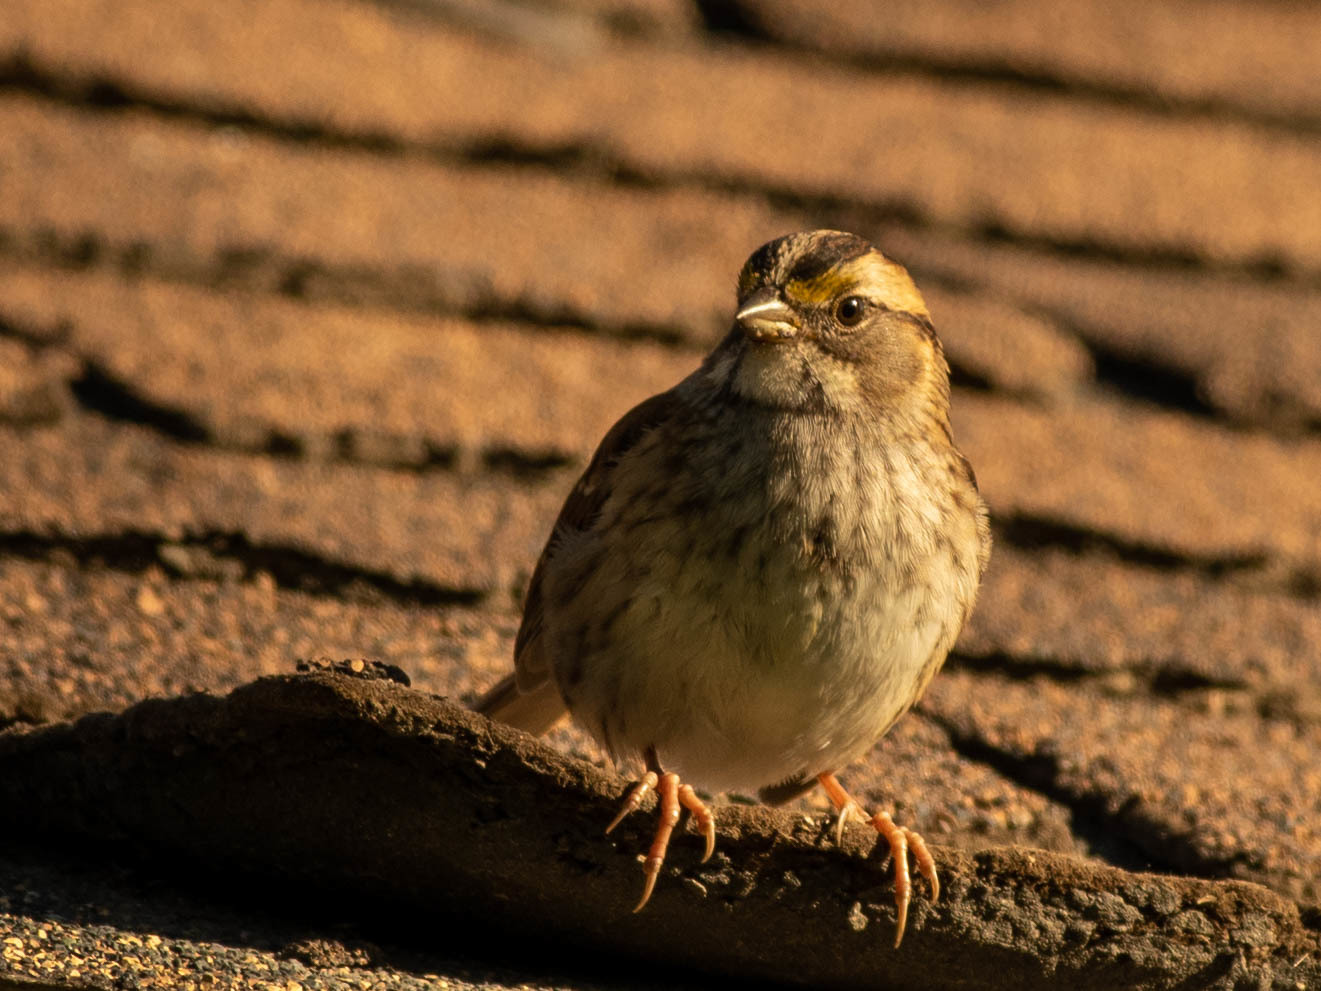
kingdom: Animalia
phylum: Chordata
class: Aves
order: Passeriformes
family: Passerellidae
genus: Zonotrichia
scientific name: Zonotrichia albicollis
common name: White-throated sparrow
